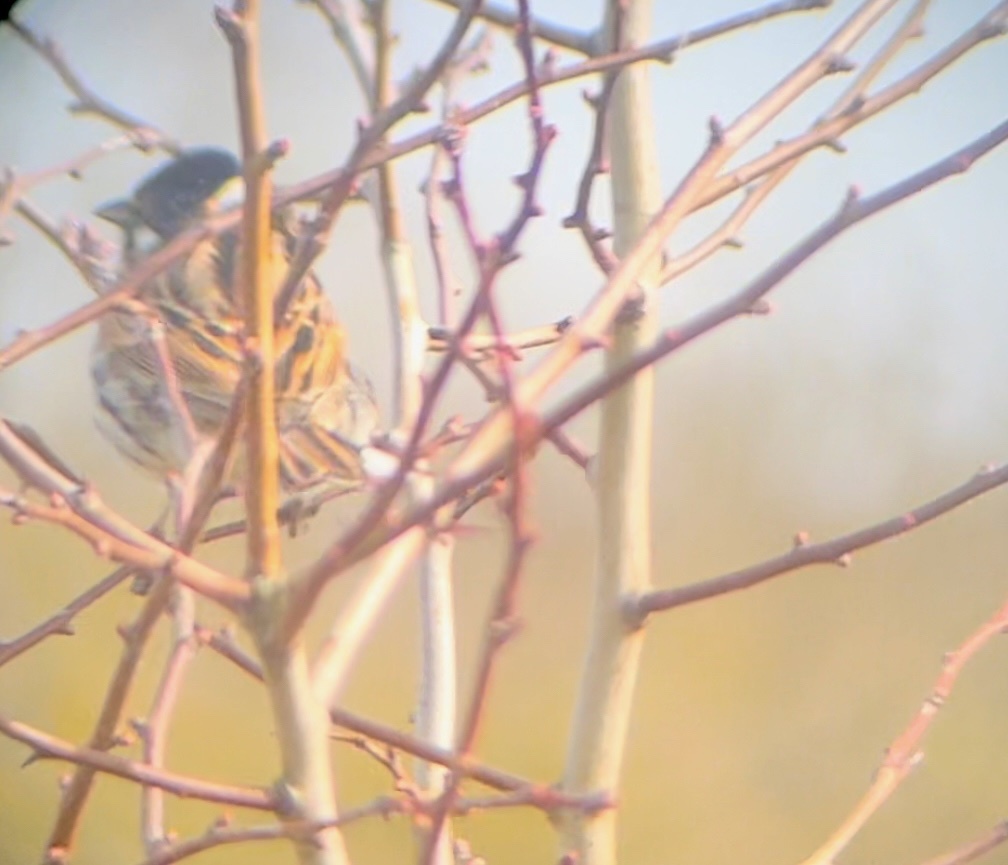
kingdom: Animalia
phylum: Chordata
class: Aves
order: Passeriformes
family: Emberizidae
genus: Emberiza
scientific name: Emberiza schoeniclus
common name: Reed bunting
